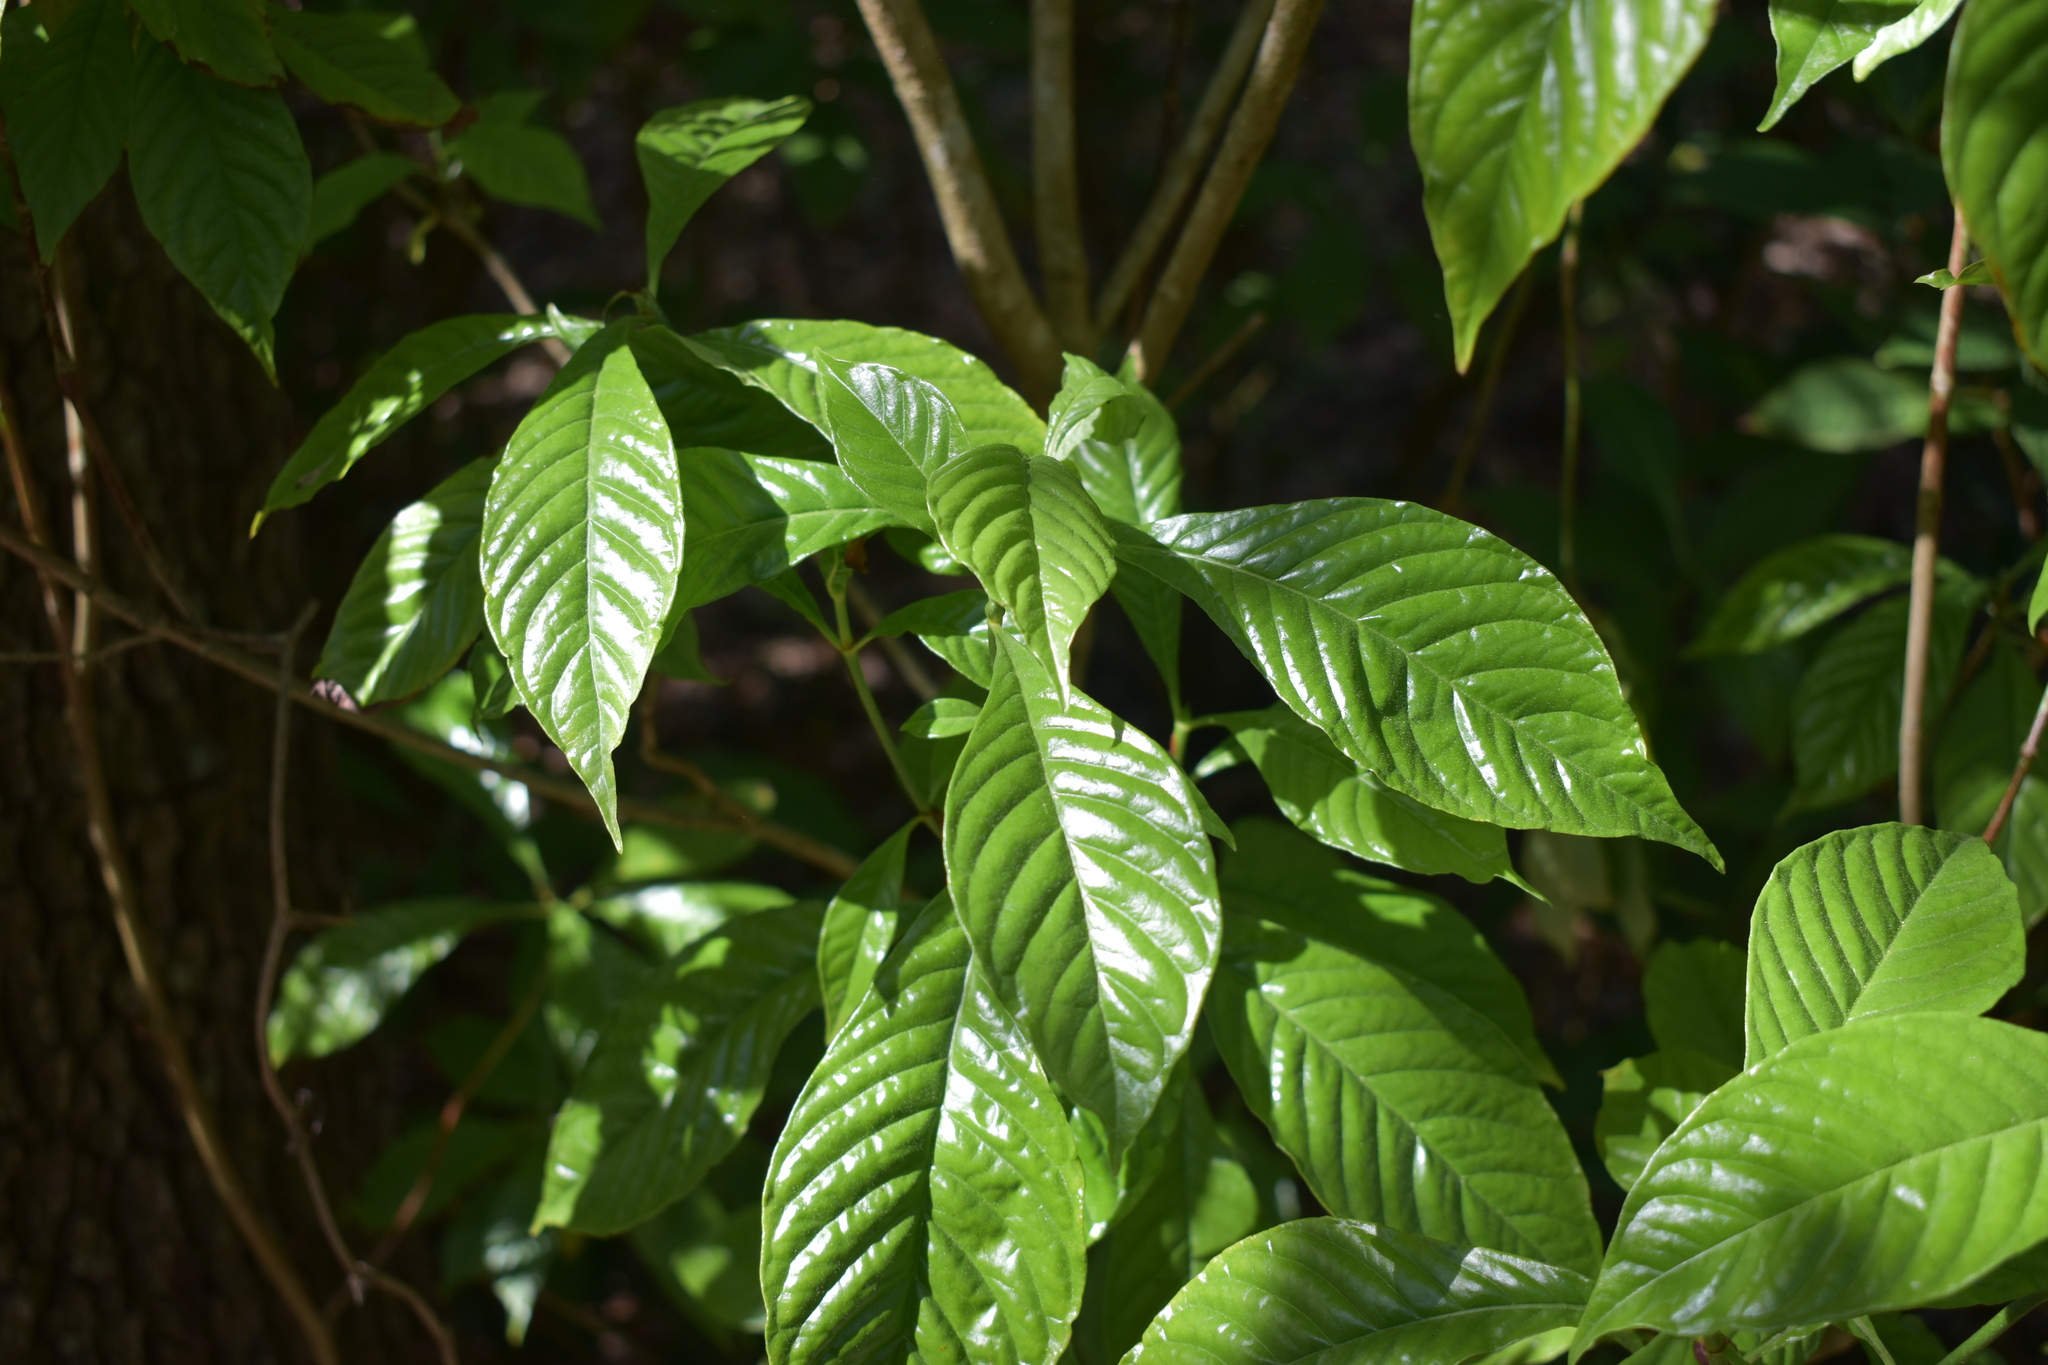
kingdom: Plantae
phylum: Tracheophyta
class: Magnoliopsida
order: Gentianales
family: Rubiaceae
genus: Psychotria
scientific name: Psychotria nervosa
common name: Bastard cankerberry
